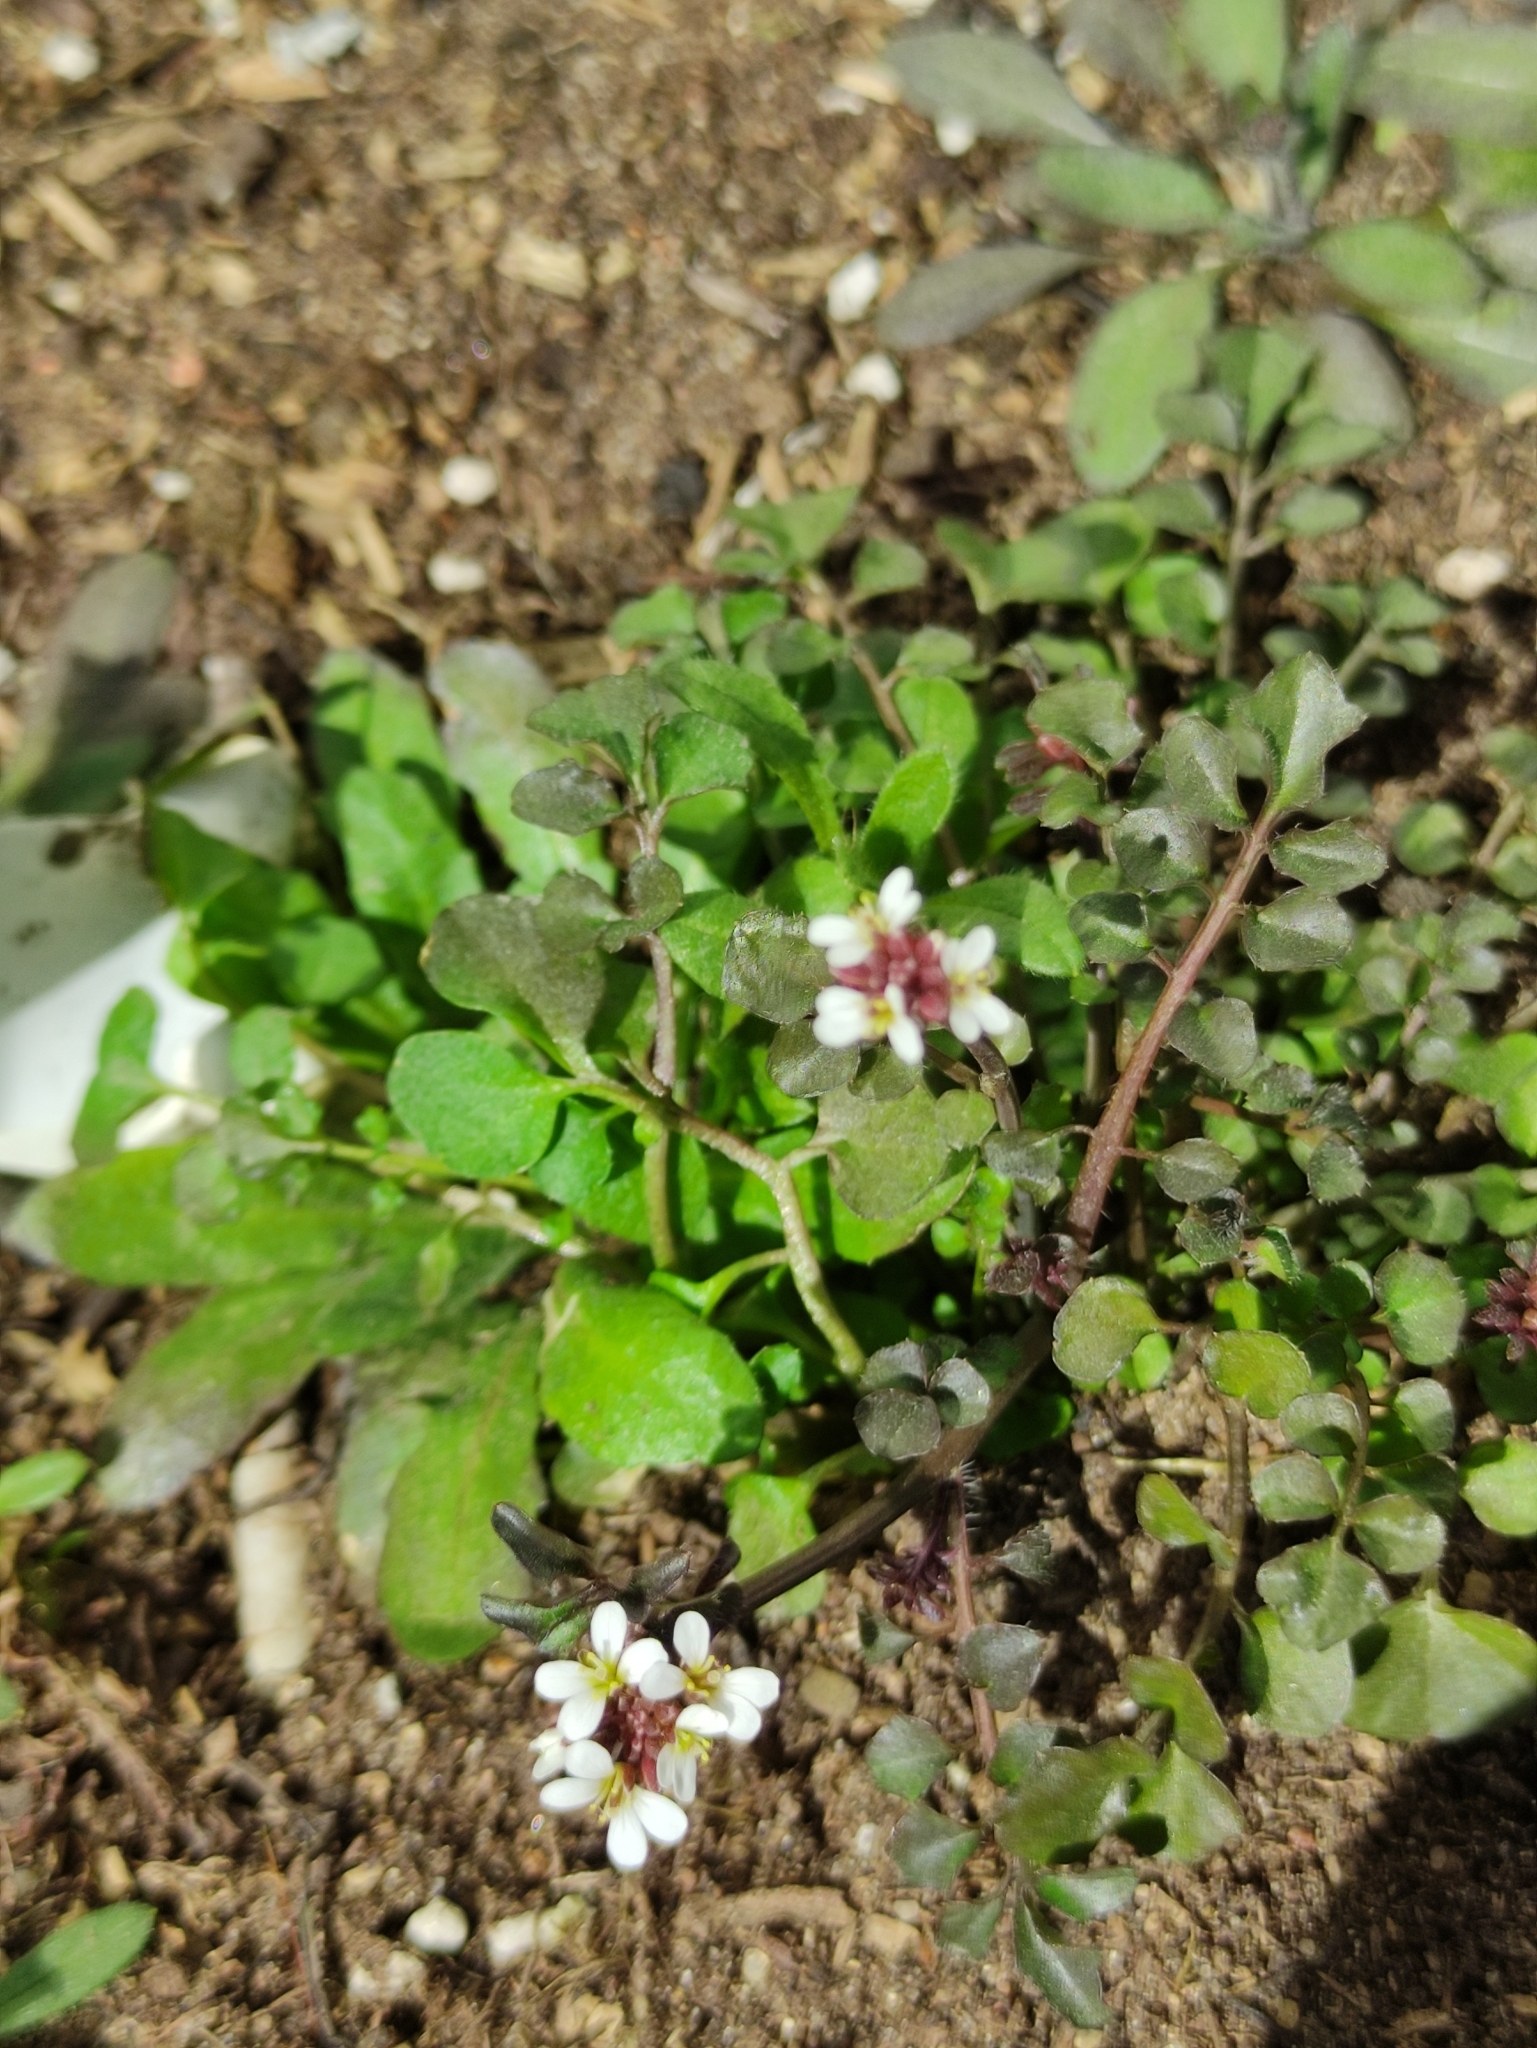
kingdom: Plantae
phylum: Tracheophyta
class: Magnoliopsida
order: Brassicales
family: Brassicaceae
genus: Cardamine
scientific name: Cardamine hirsuta
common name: Hairy bittercress
